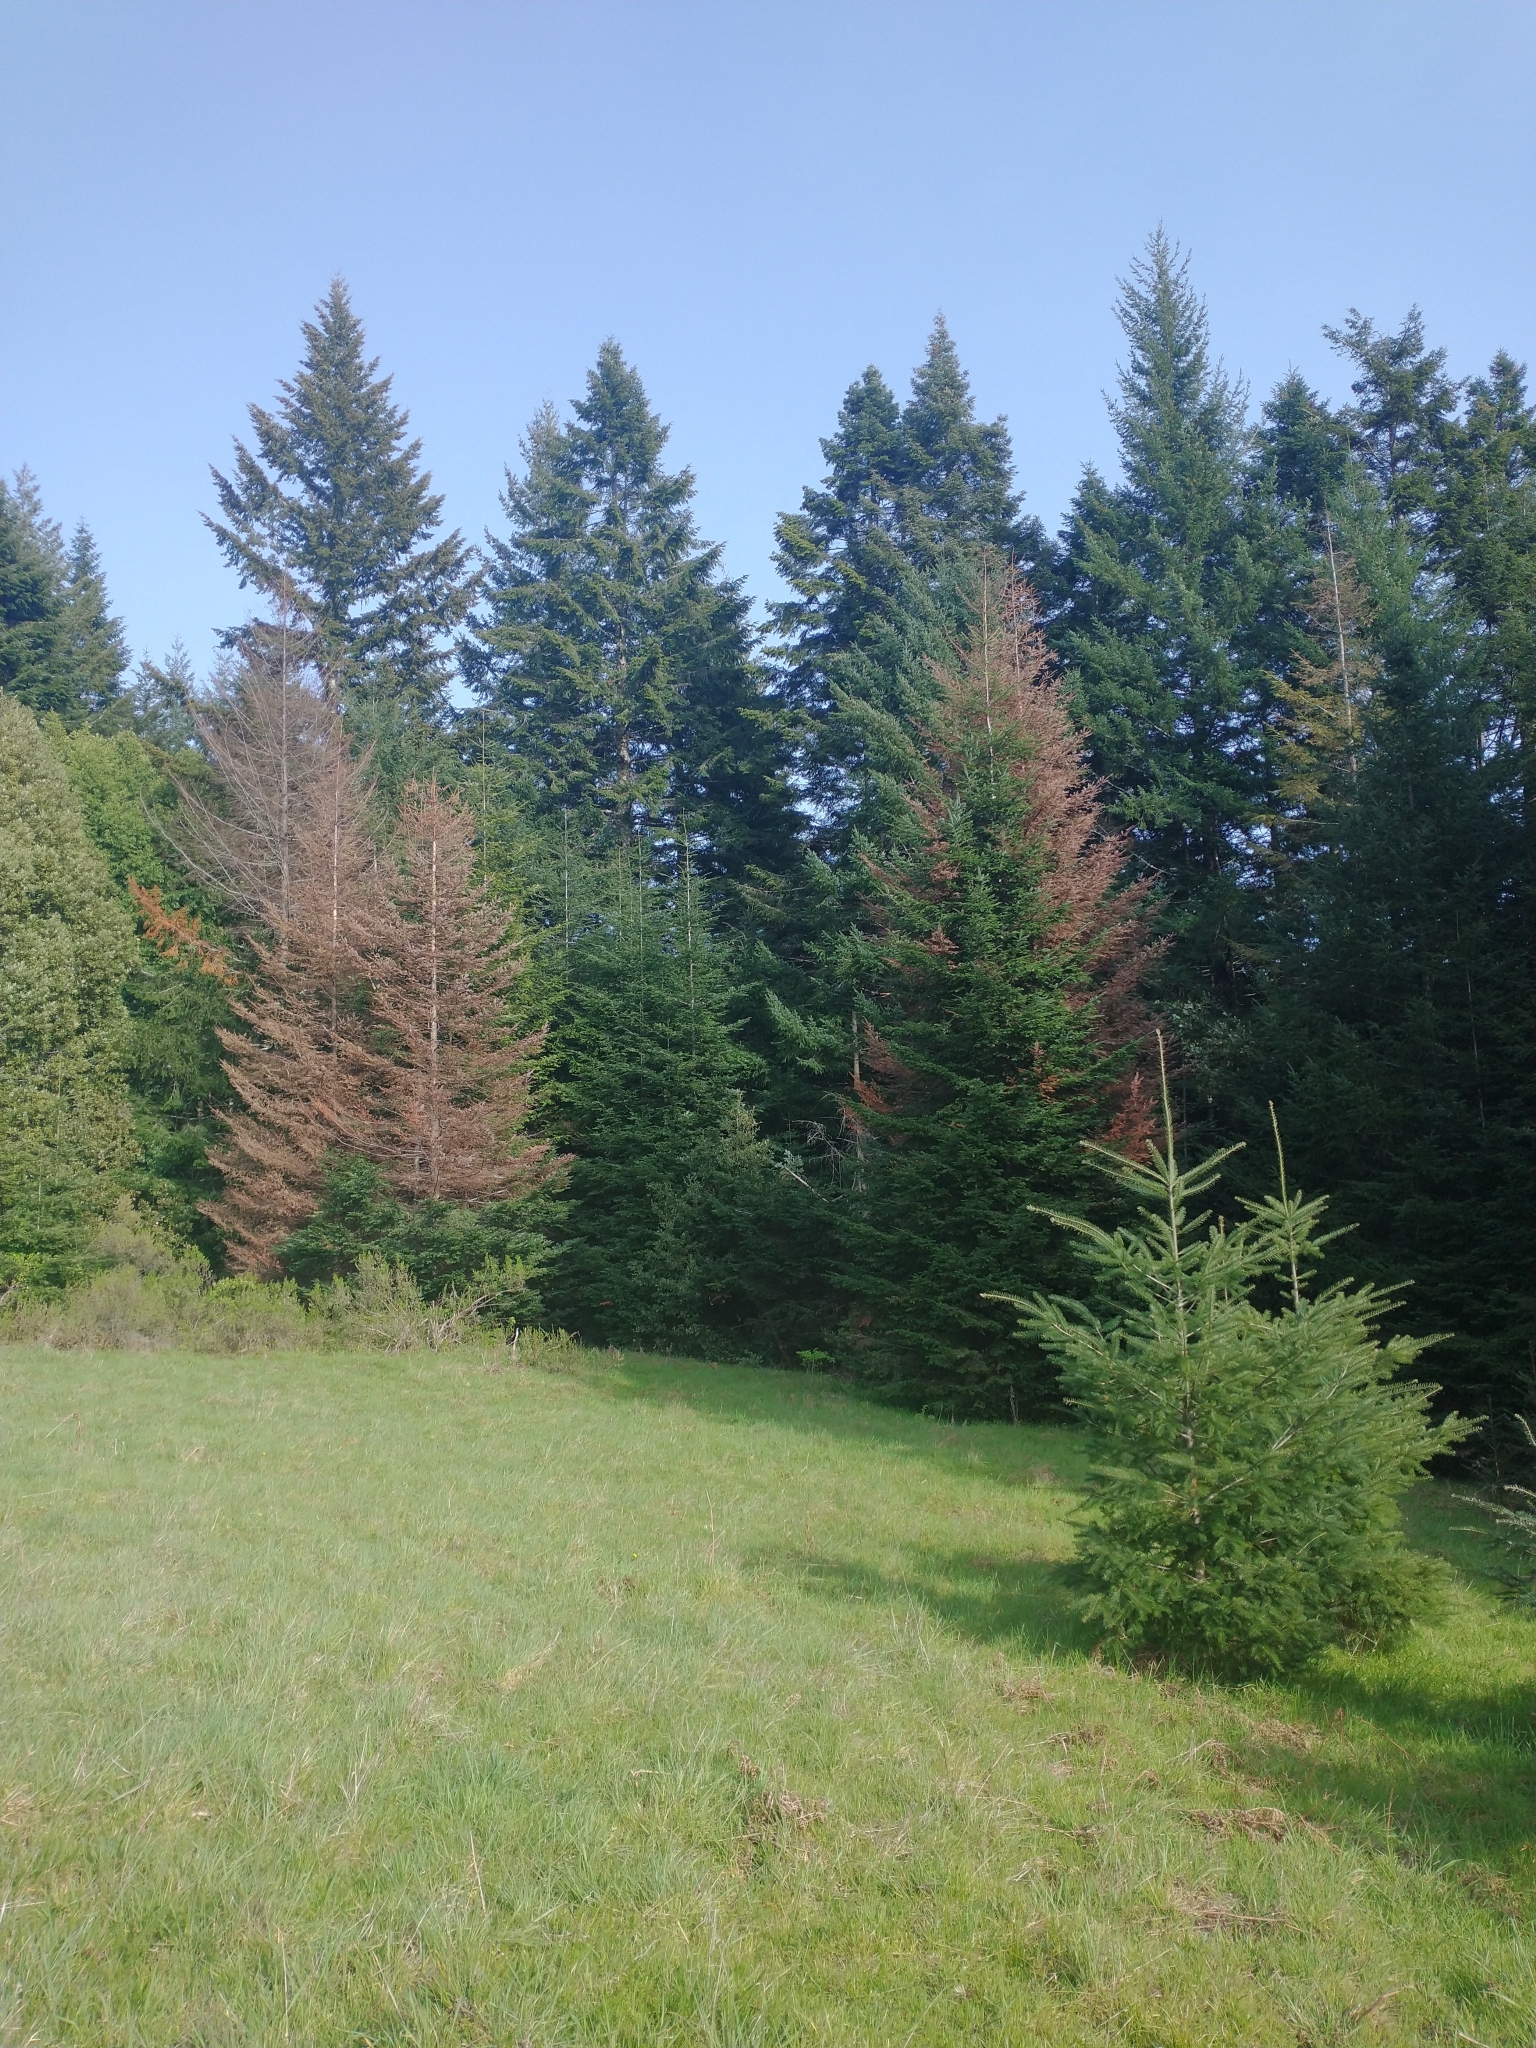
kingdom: Plantae
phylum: Tracheophyta
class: Pinopsida
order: Pinales
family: Pinaceae
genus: Pseudotsuga
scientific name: Pseudotsuga menziesii
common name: Douglas fir
